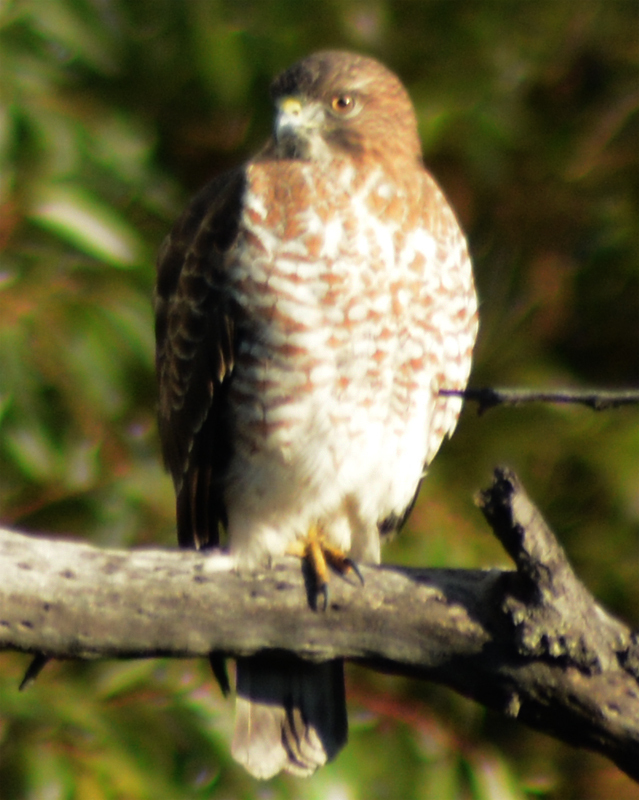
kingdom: Animalia
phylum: Chordata
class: Aves
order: Accipitriformes
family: Accipitridae
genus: Buteo
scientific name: Buteo platypterus
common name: Broad-winged hawk
